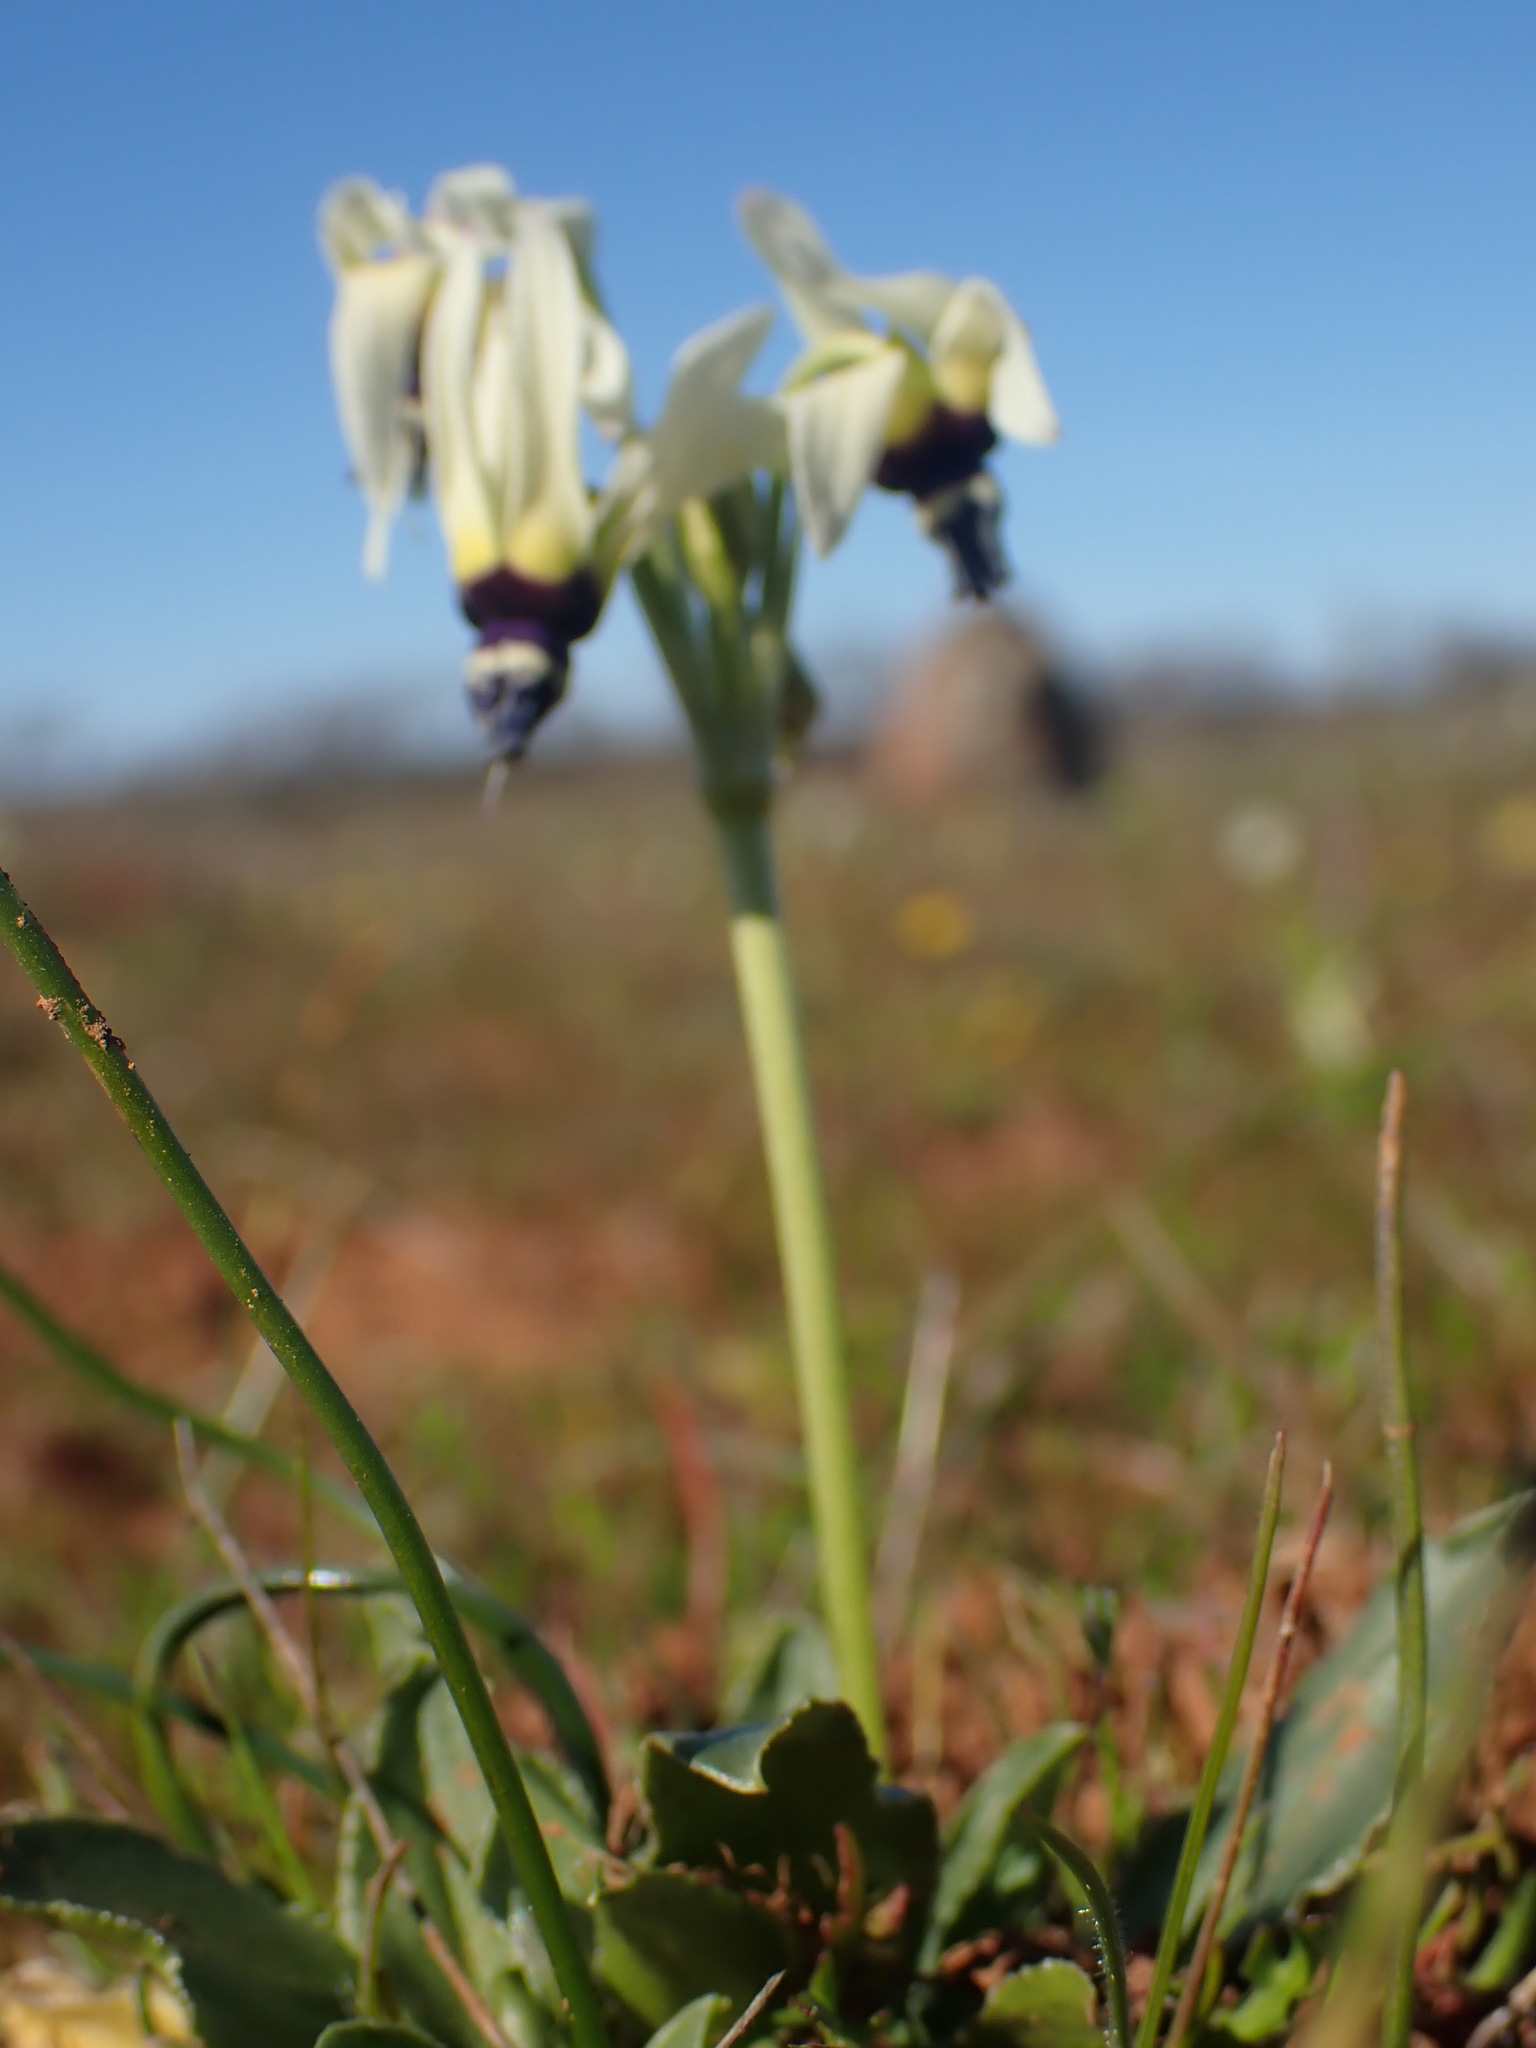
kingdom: Plantae
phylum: Tracheophyta
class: Magnoliopsida
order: Ericales
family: Primulaceae
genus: Dodecatheon
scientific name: Dodecatheon clevelandii
